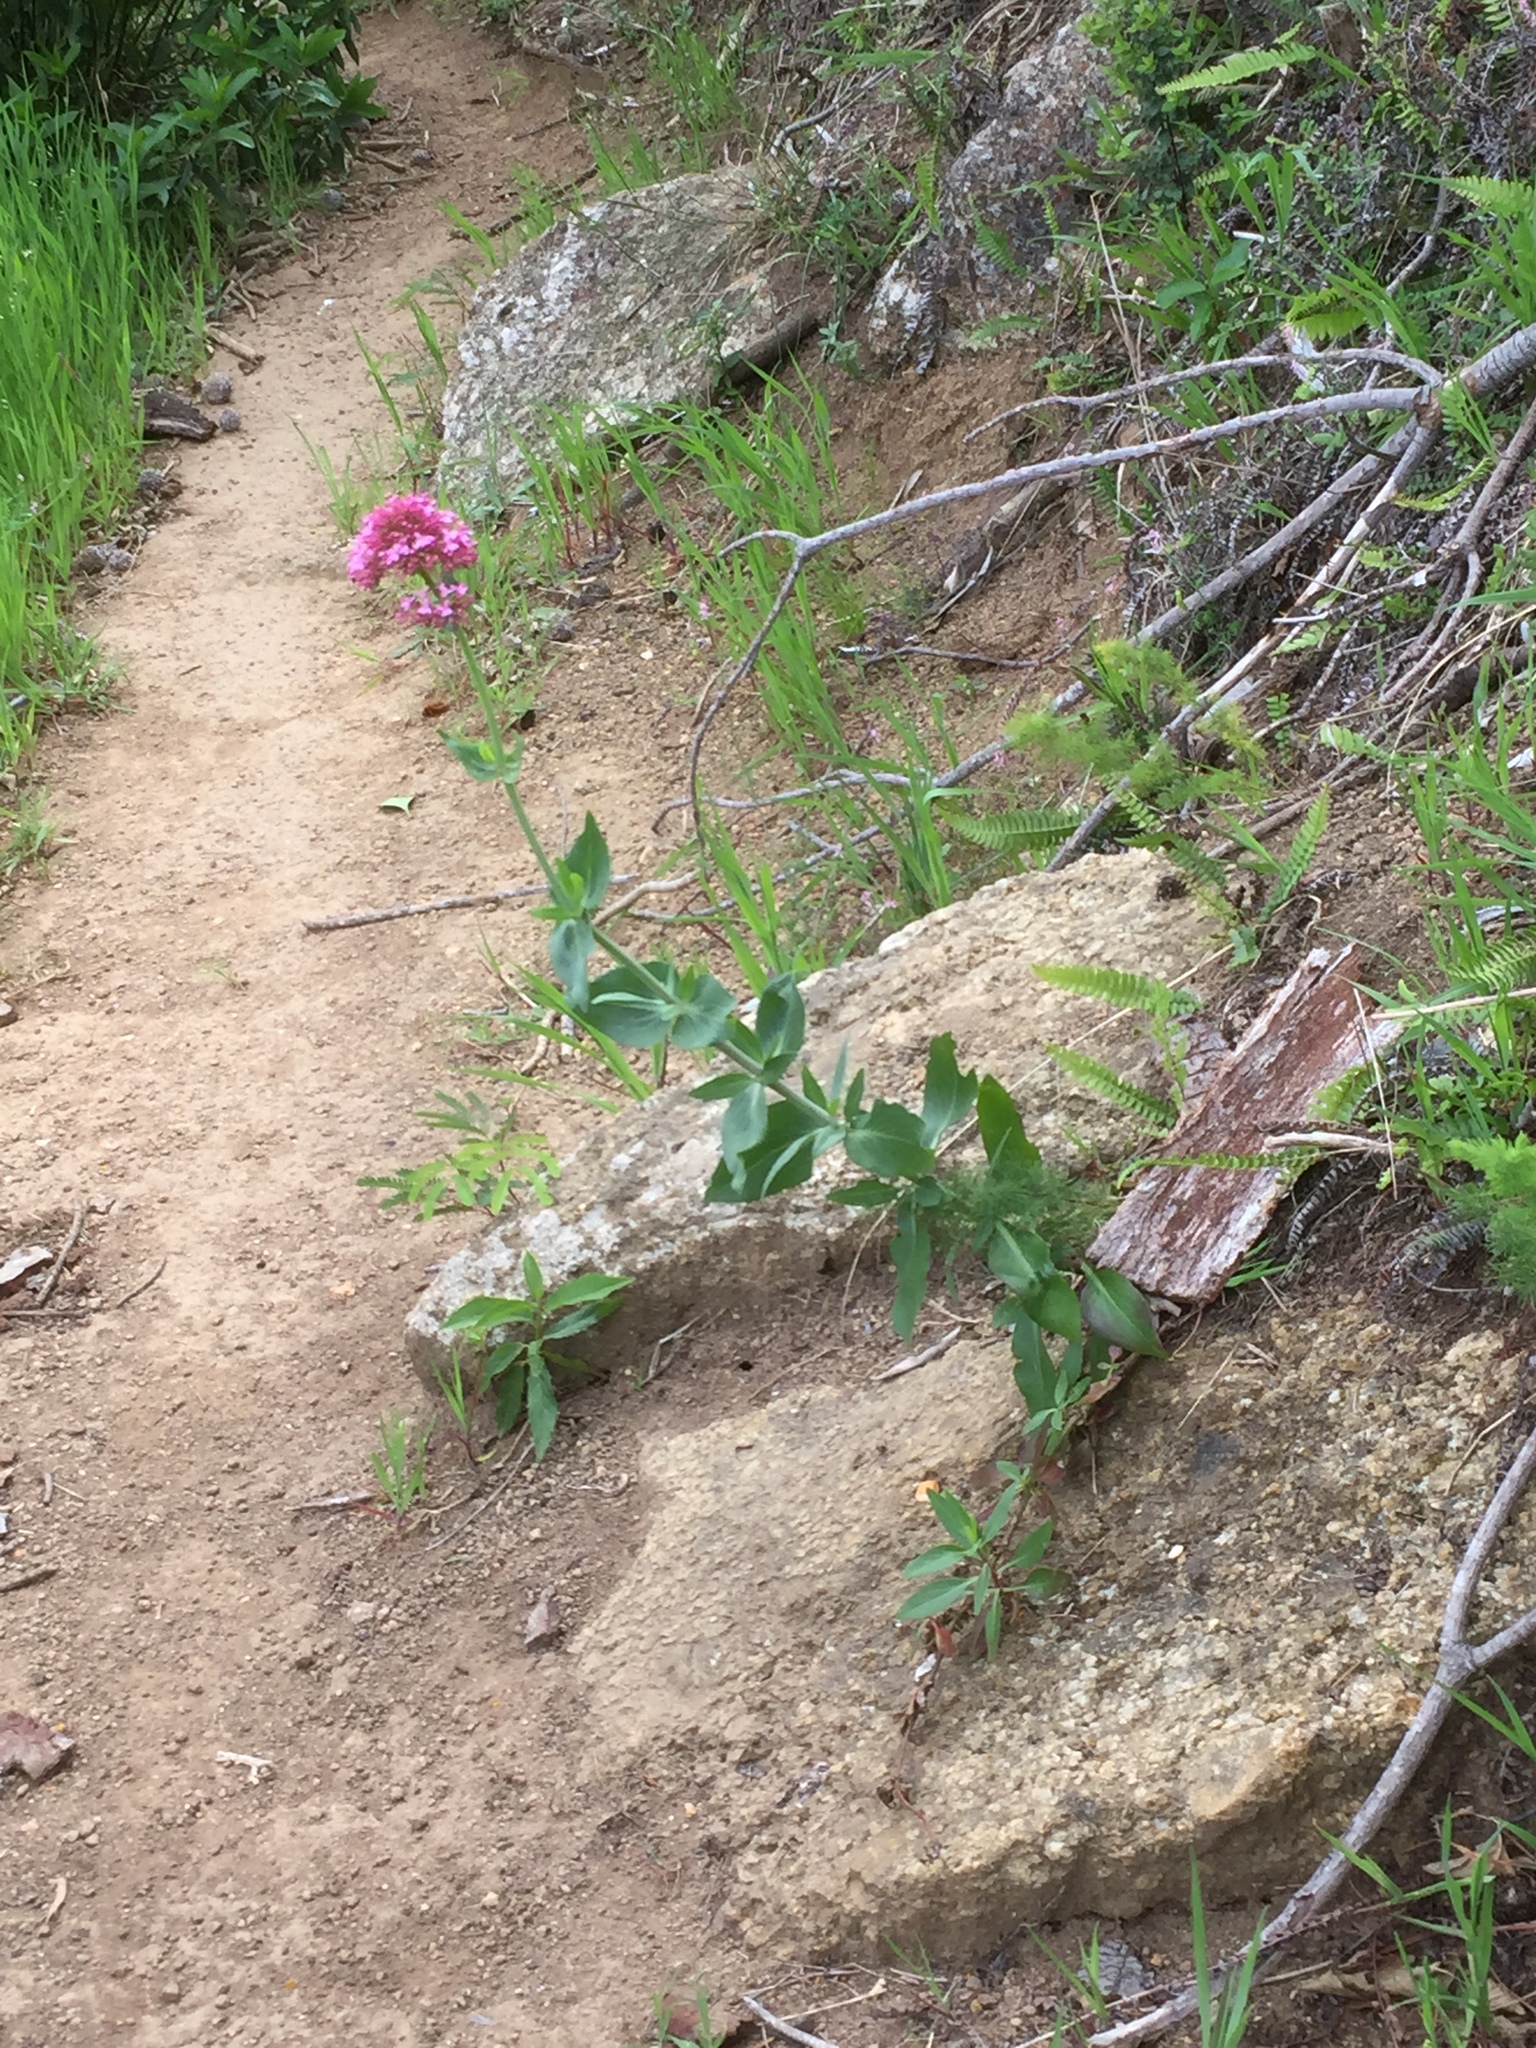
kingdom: Plantae
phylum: Tracheophyta
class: Magnoliopsida
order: Dipsacales
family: Caprifoliaceae
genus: Centranthus
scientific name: Centranthus ruber
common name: Red valerian
